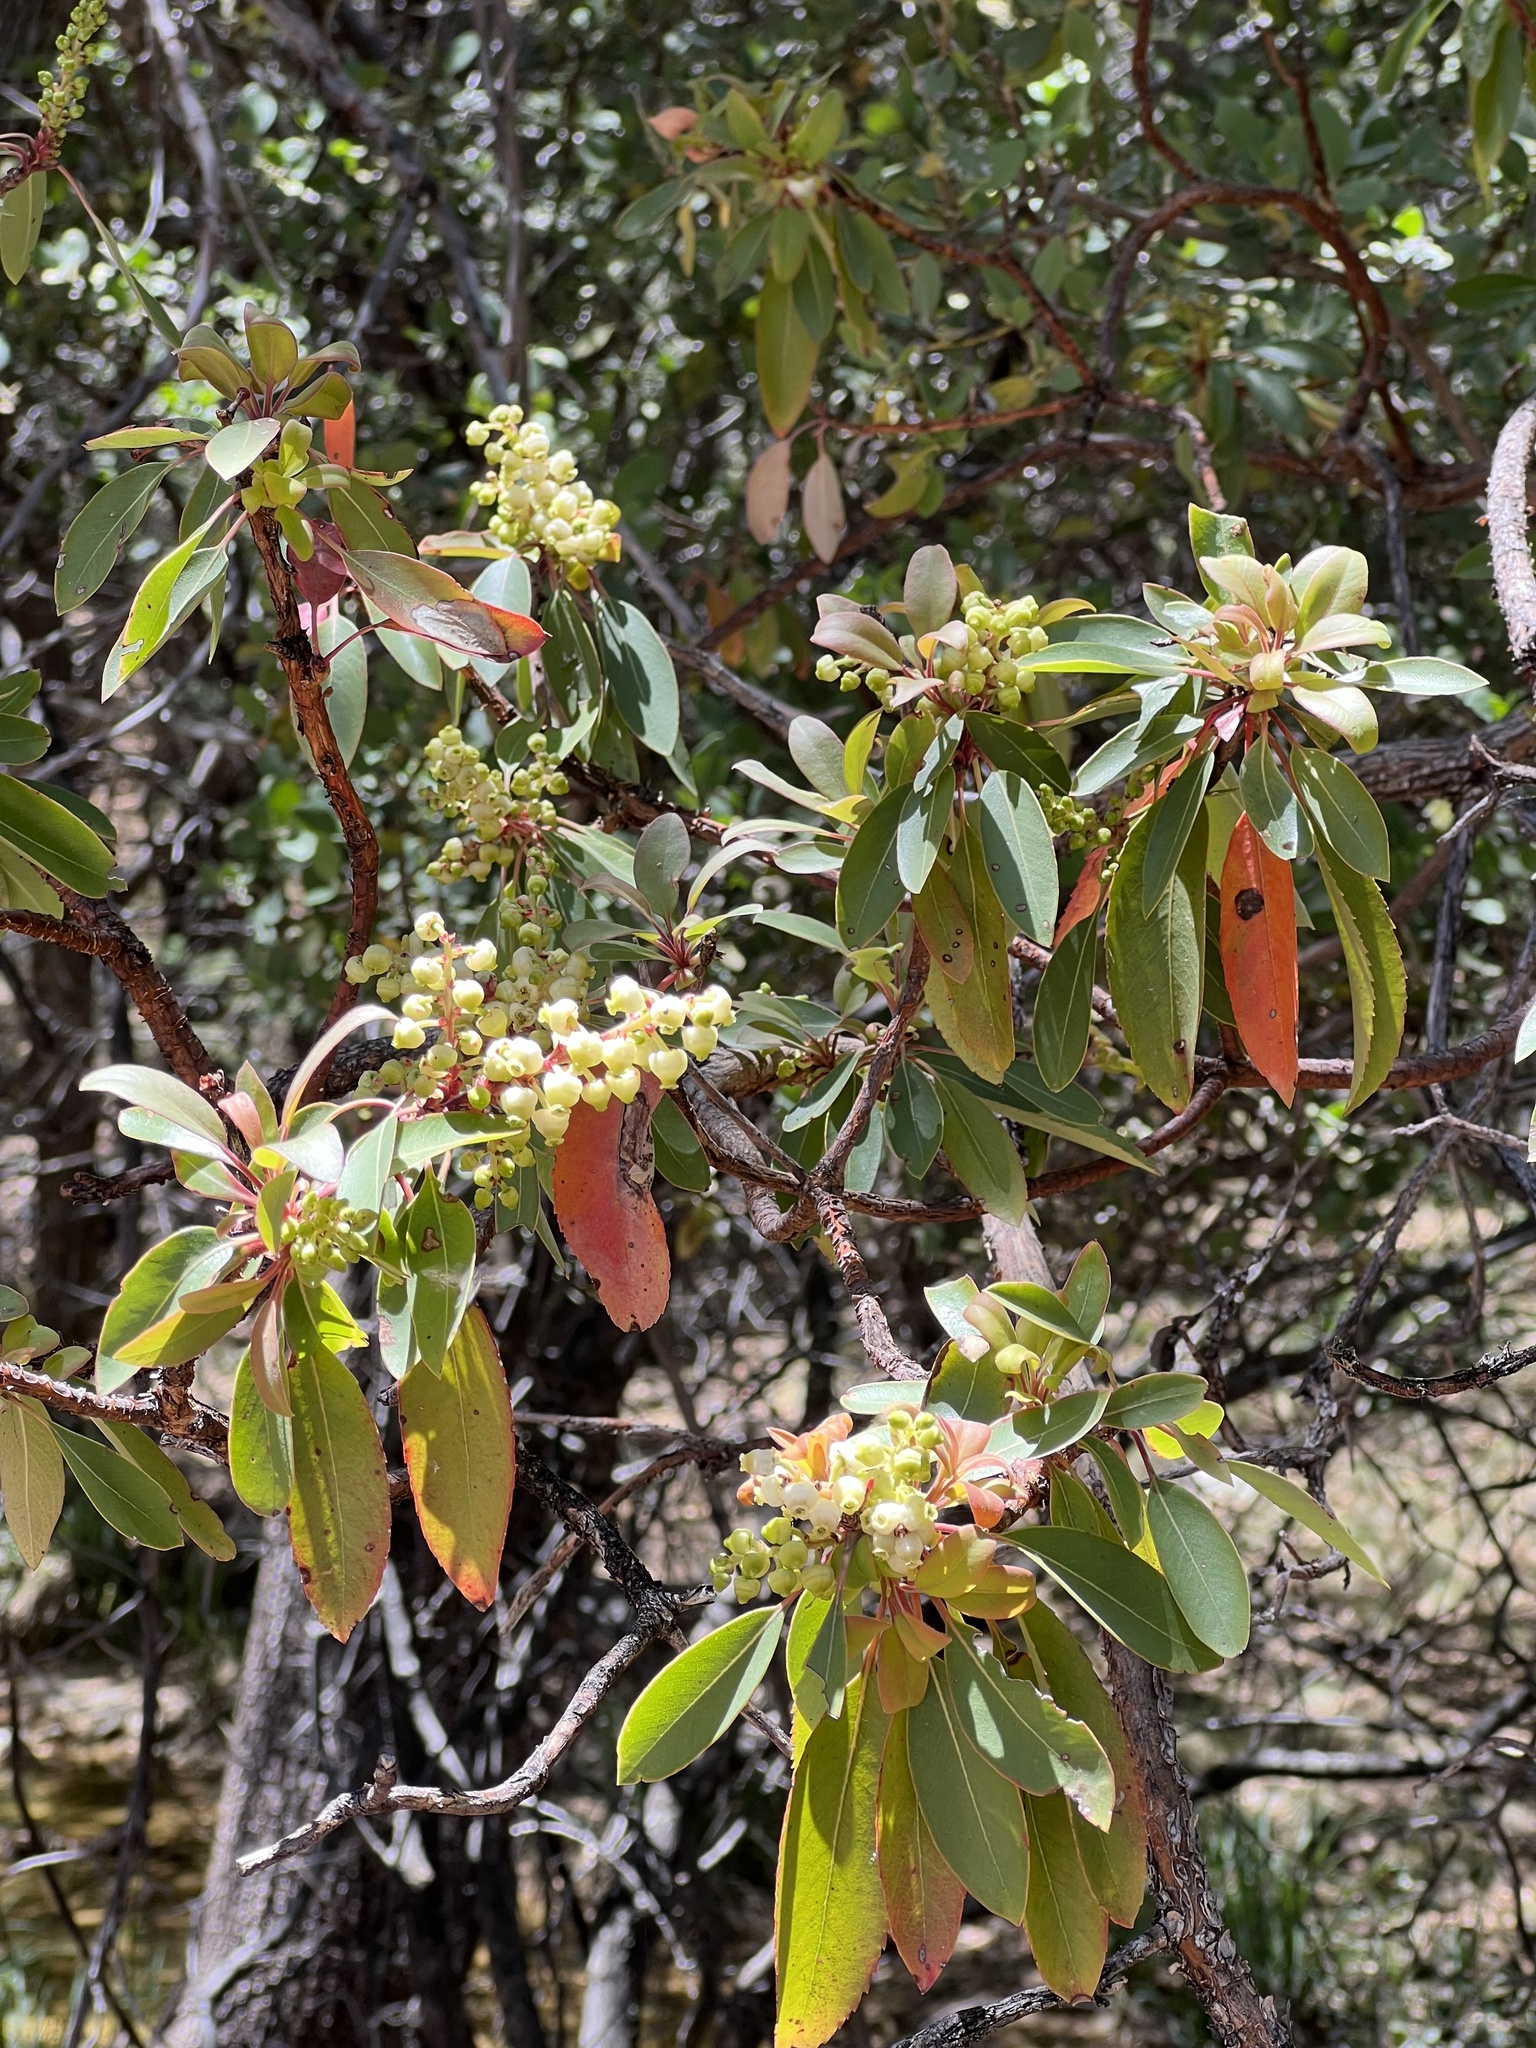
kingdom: Plantae
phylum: Tracheophyta
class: Magnoliopsida
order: Ericales
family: Ericaceae
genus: Arbutus
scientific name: Arbutus arizonica
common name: Arizona madrone
